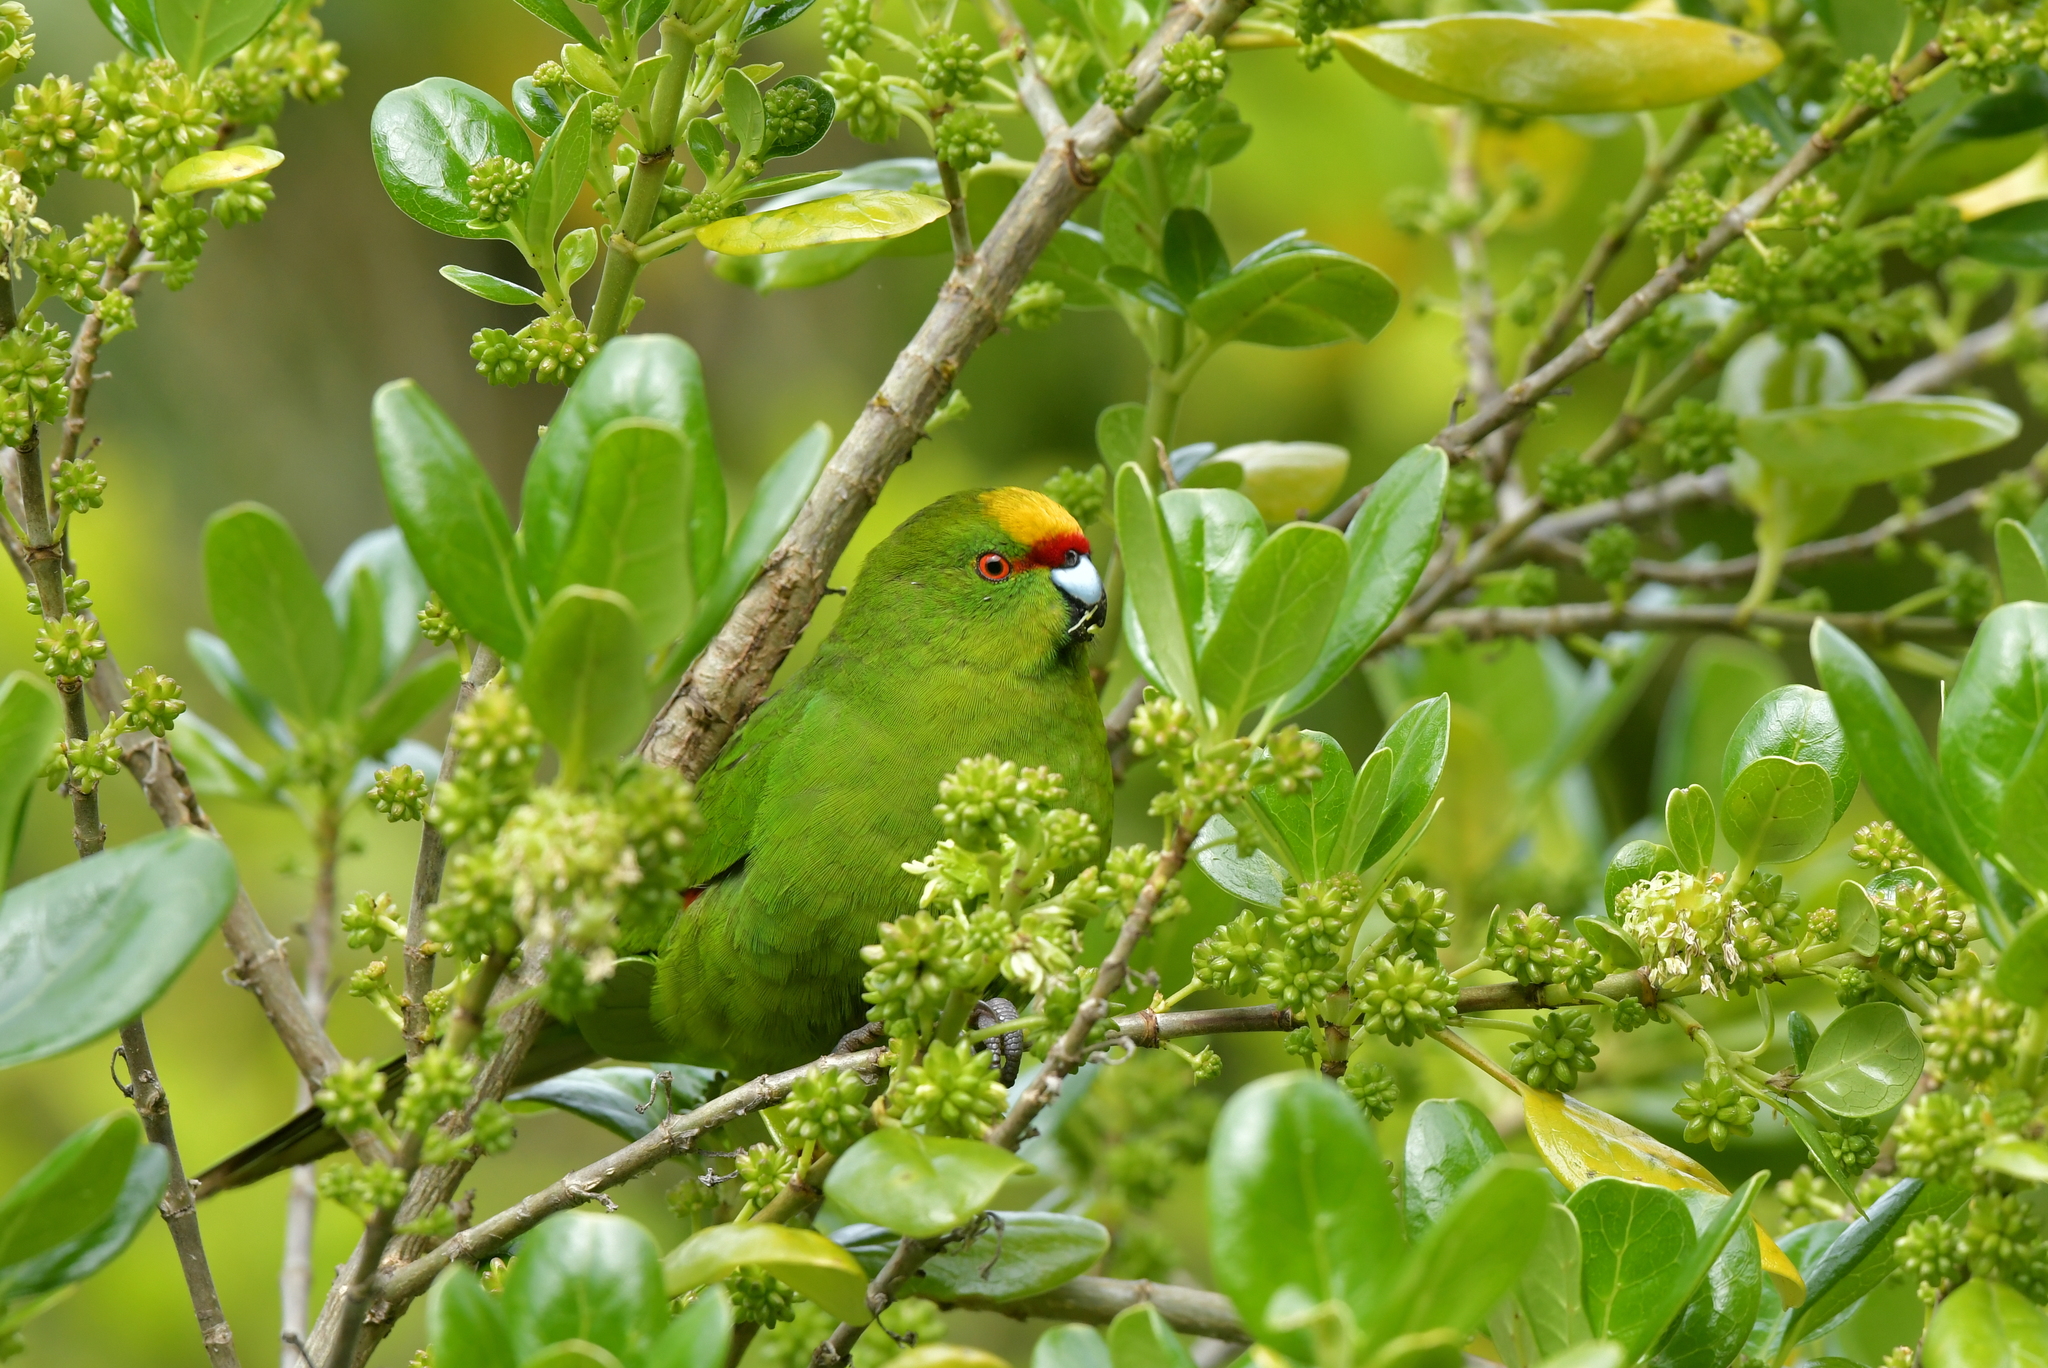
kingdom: Animalia
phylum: Chordata
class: Aves
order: Psittaciformes
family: Psittacidae
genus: Cyanoramphus
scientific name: Cyanoramphus auriceps
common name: Yellow-crowned parakeet
